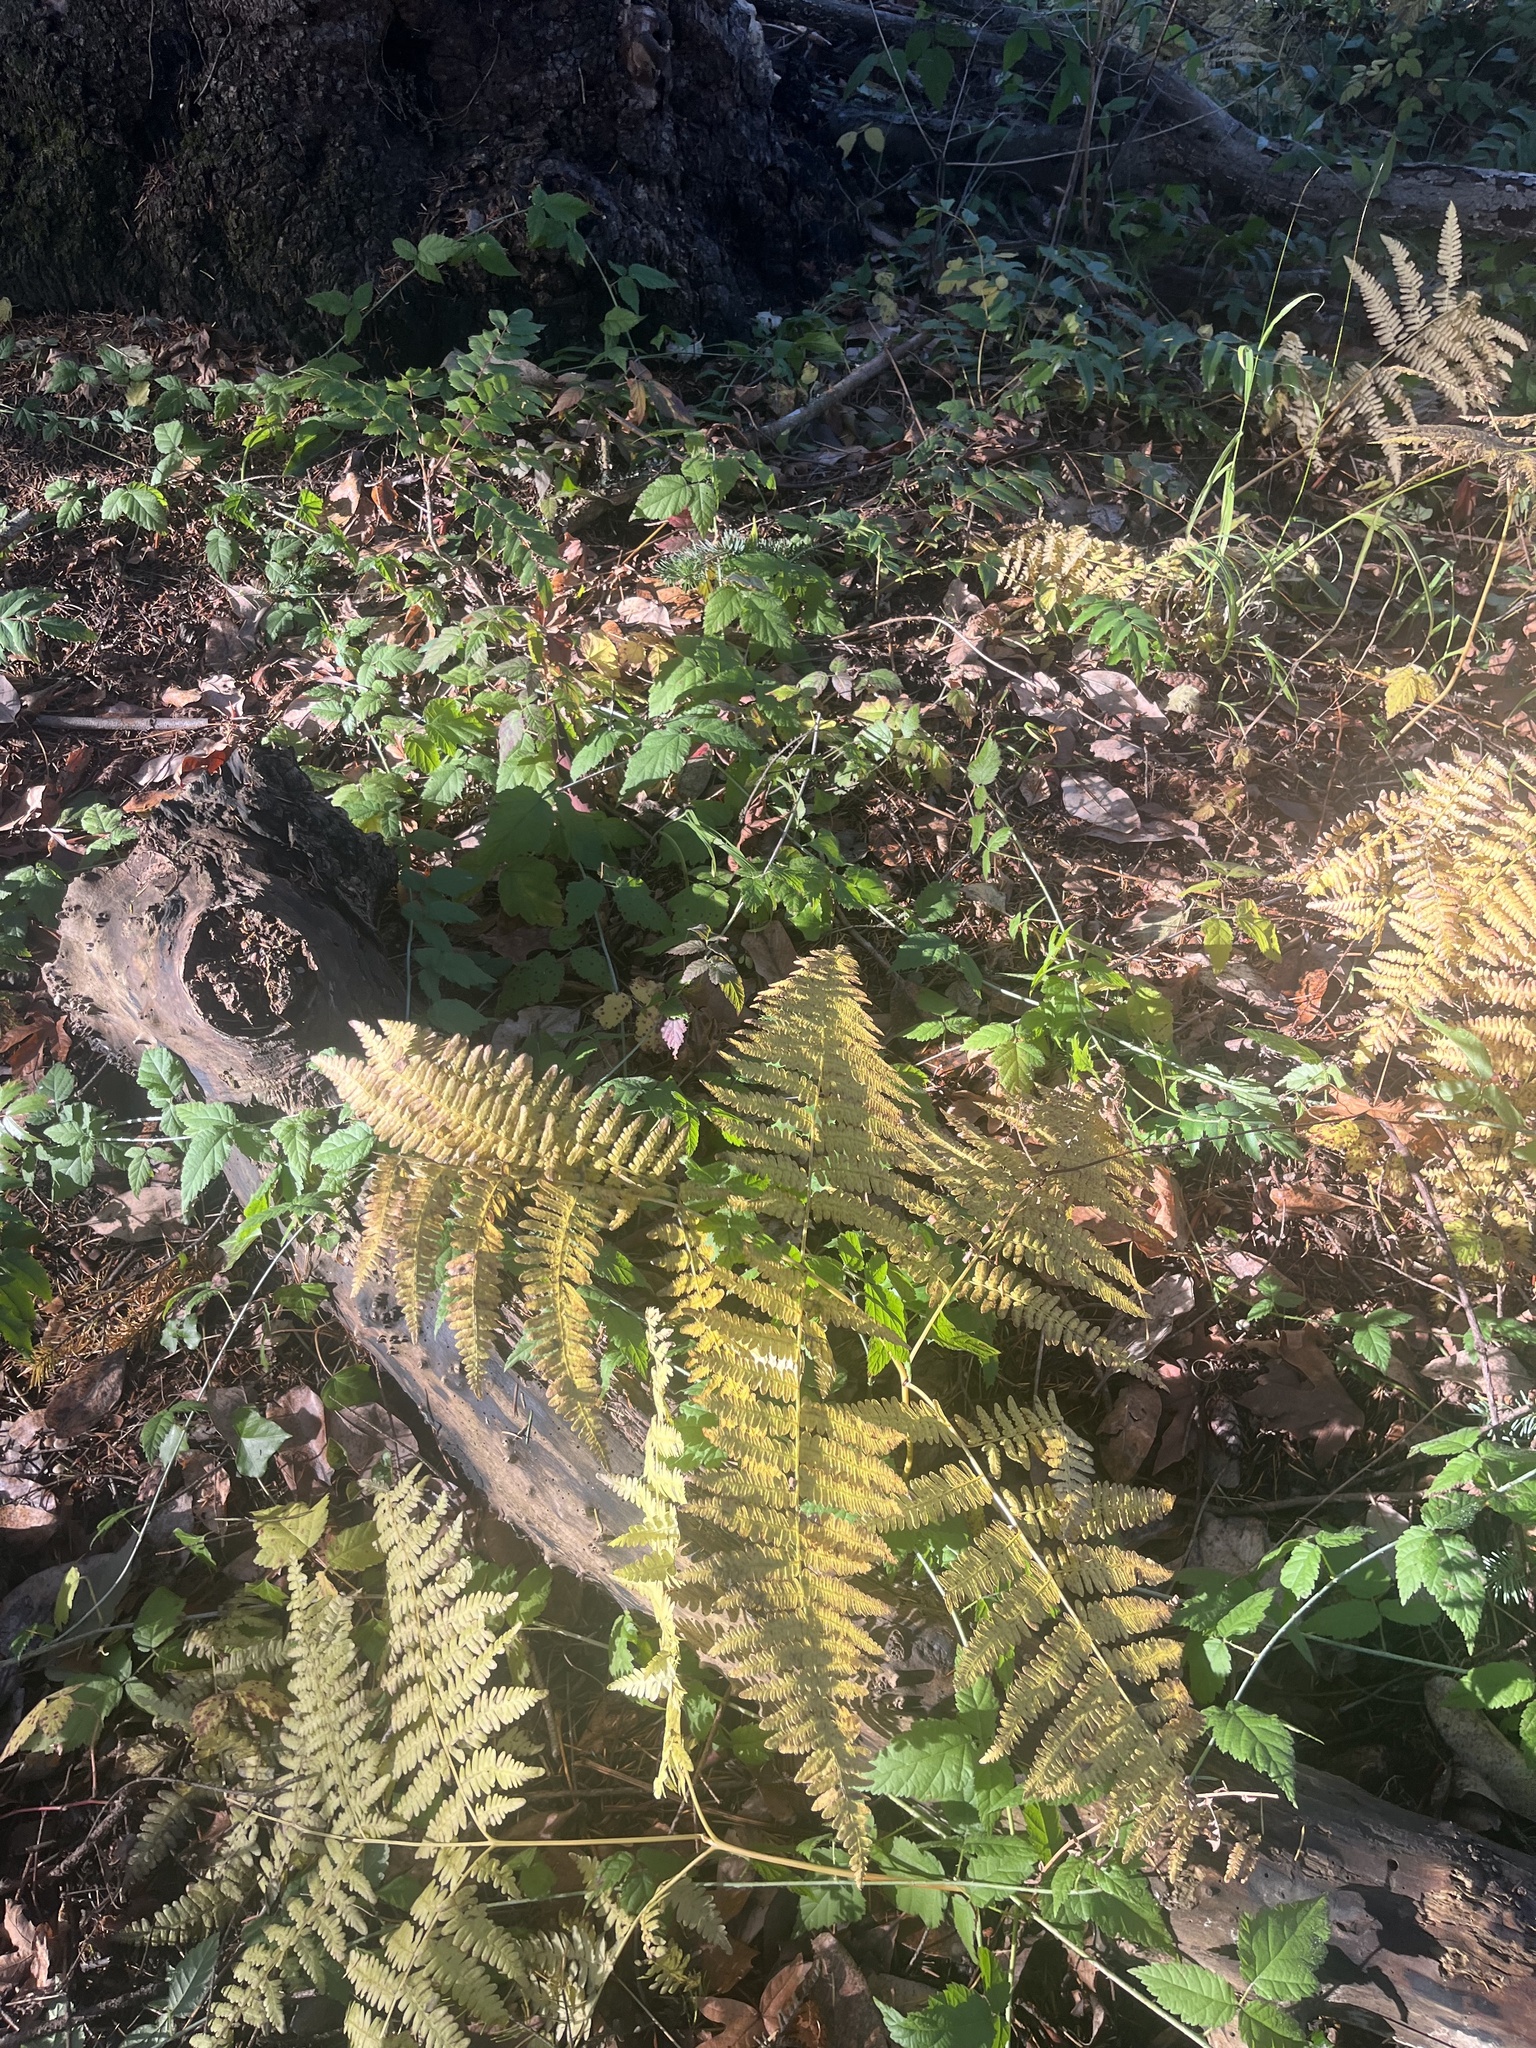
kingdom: Plantae
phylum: Tracheophyta
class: Polypodiopsida
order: Polypodiales
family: Dennstaedtiaceae
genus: Pteridium
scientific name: Pteridium aquilinum
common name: Bracken
